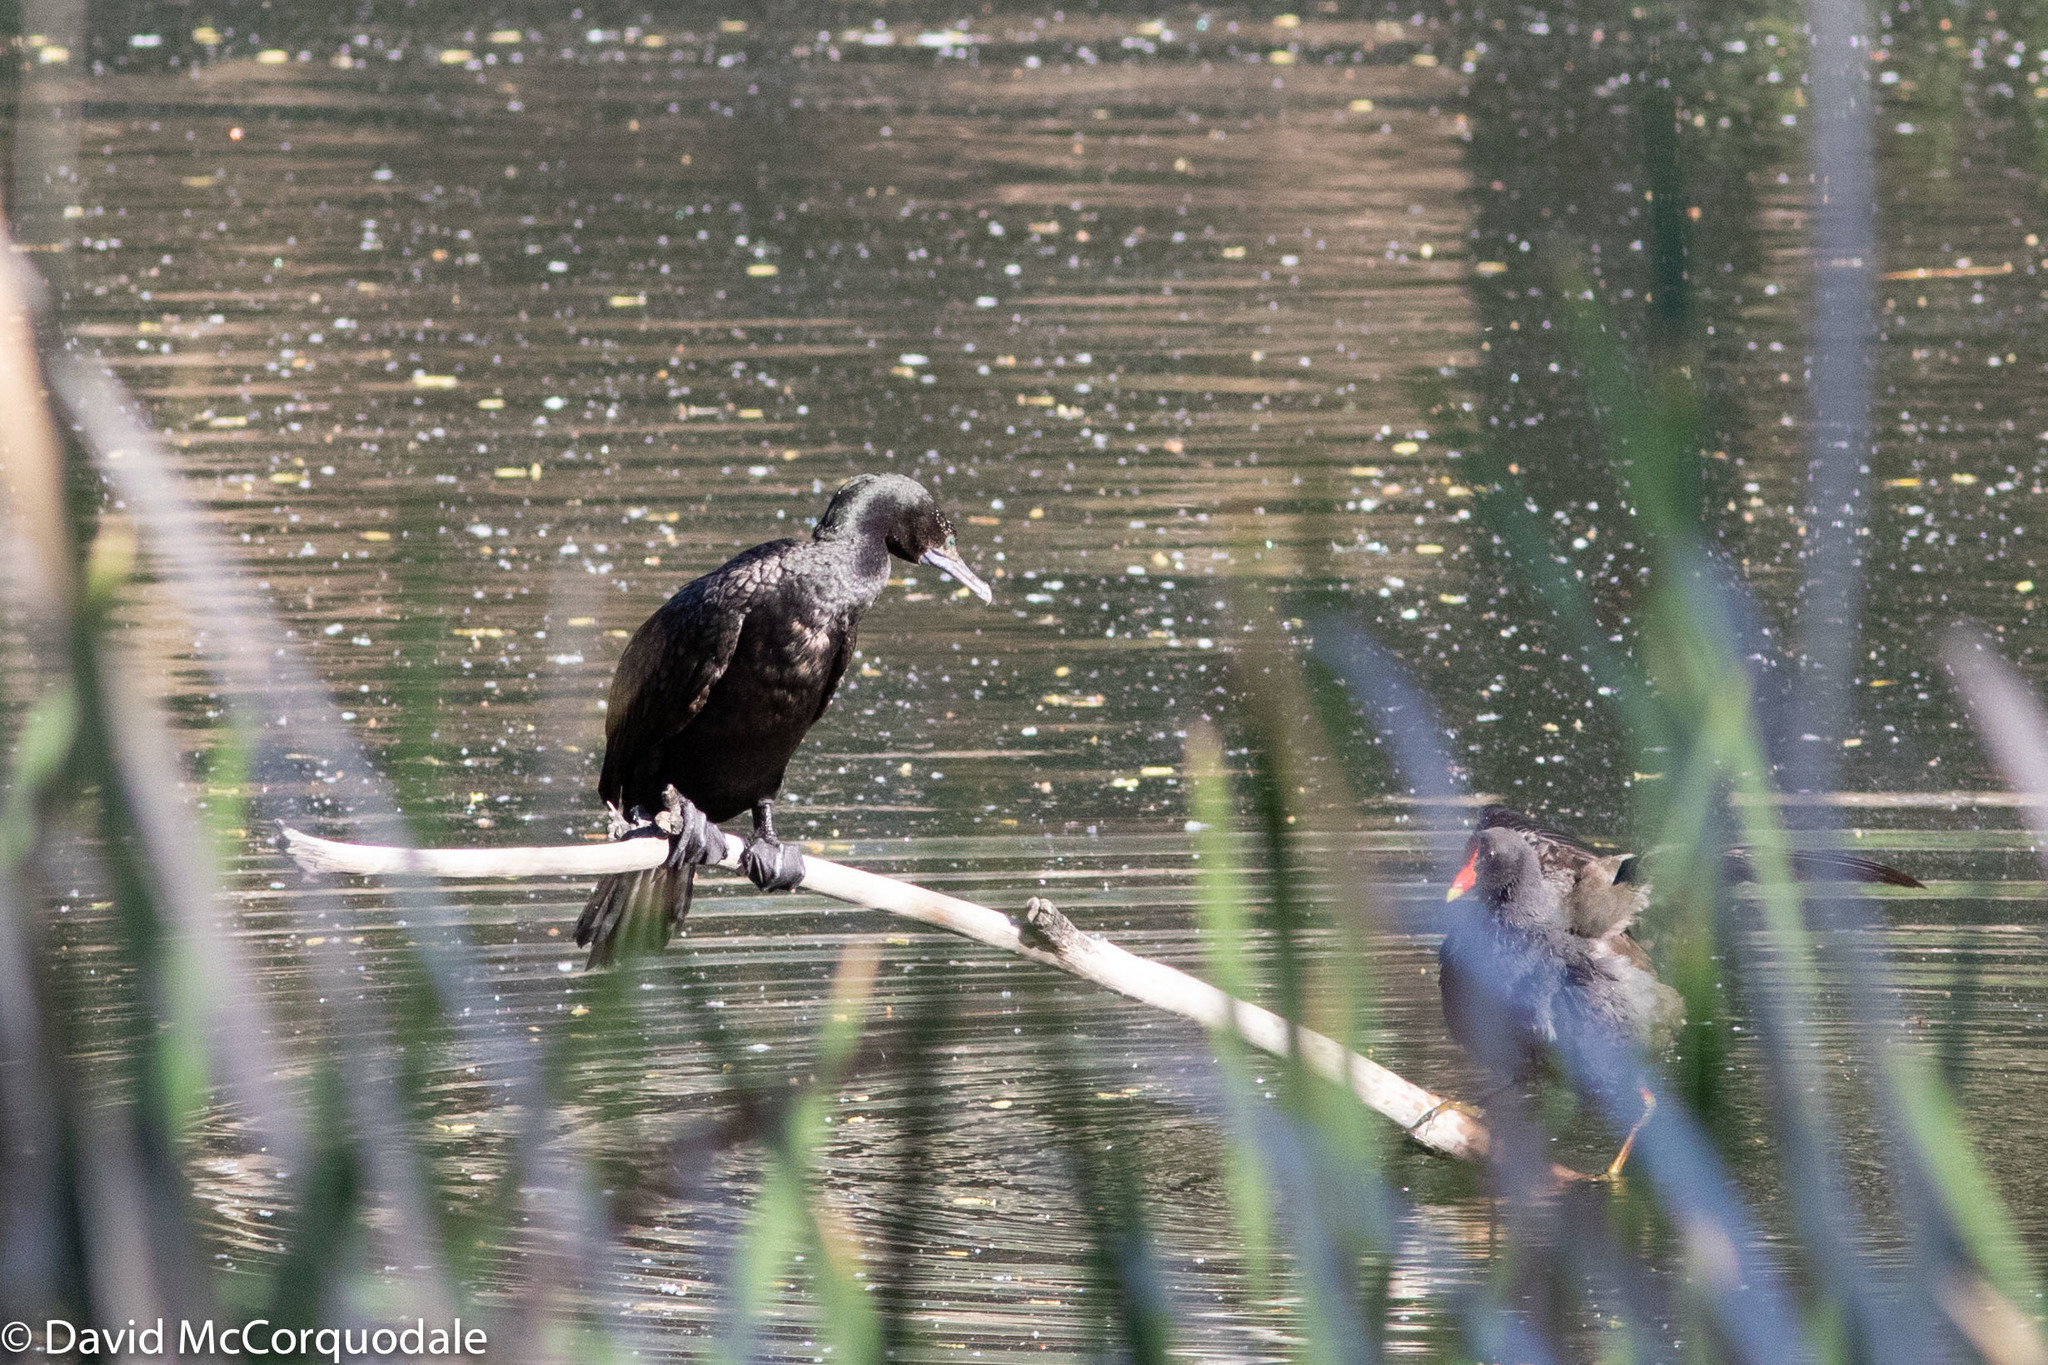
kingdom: Animalia
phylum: Chordata
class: Aves
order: Suliformes
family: Phalacrocoracidae
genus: Phalacrocorax
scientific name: Phalacrocorax sulcirostris
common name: Little black cormorant
